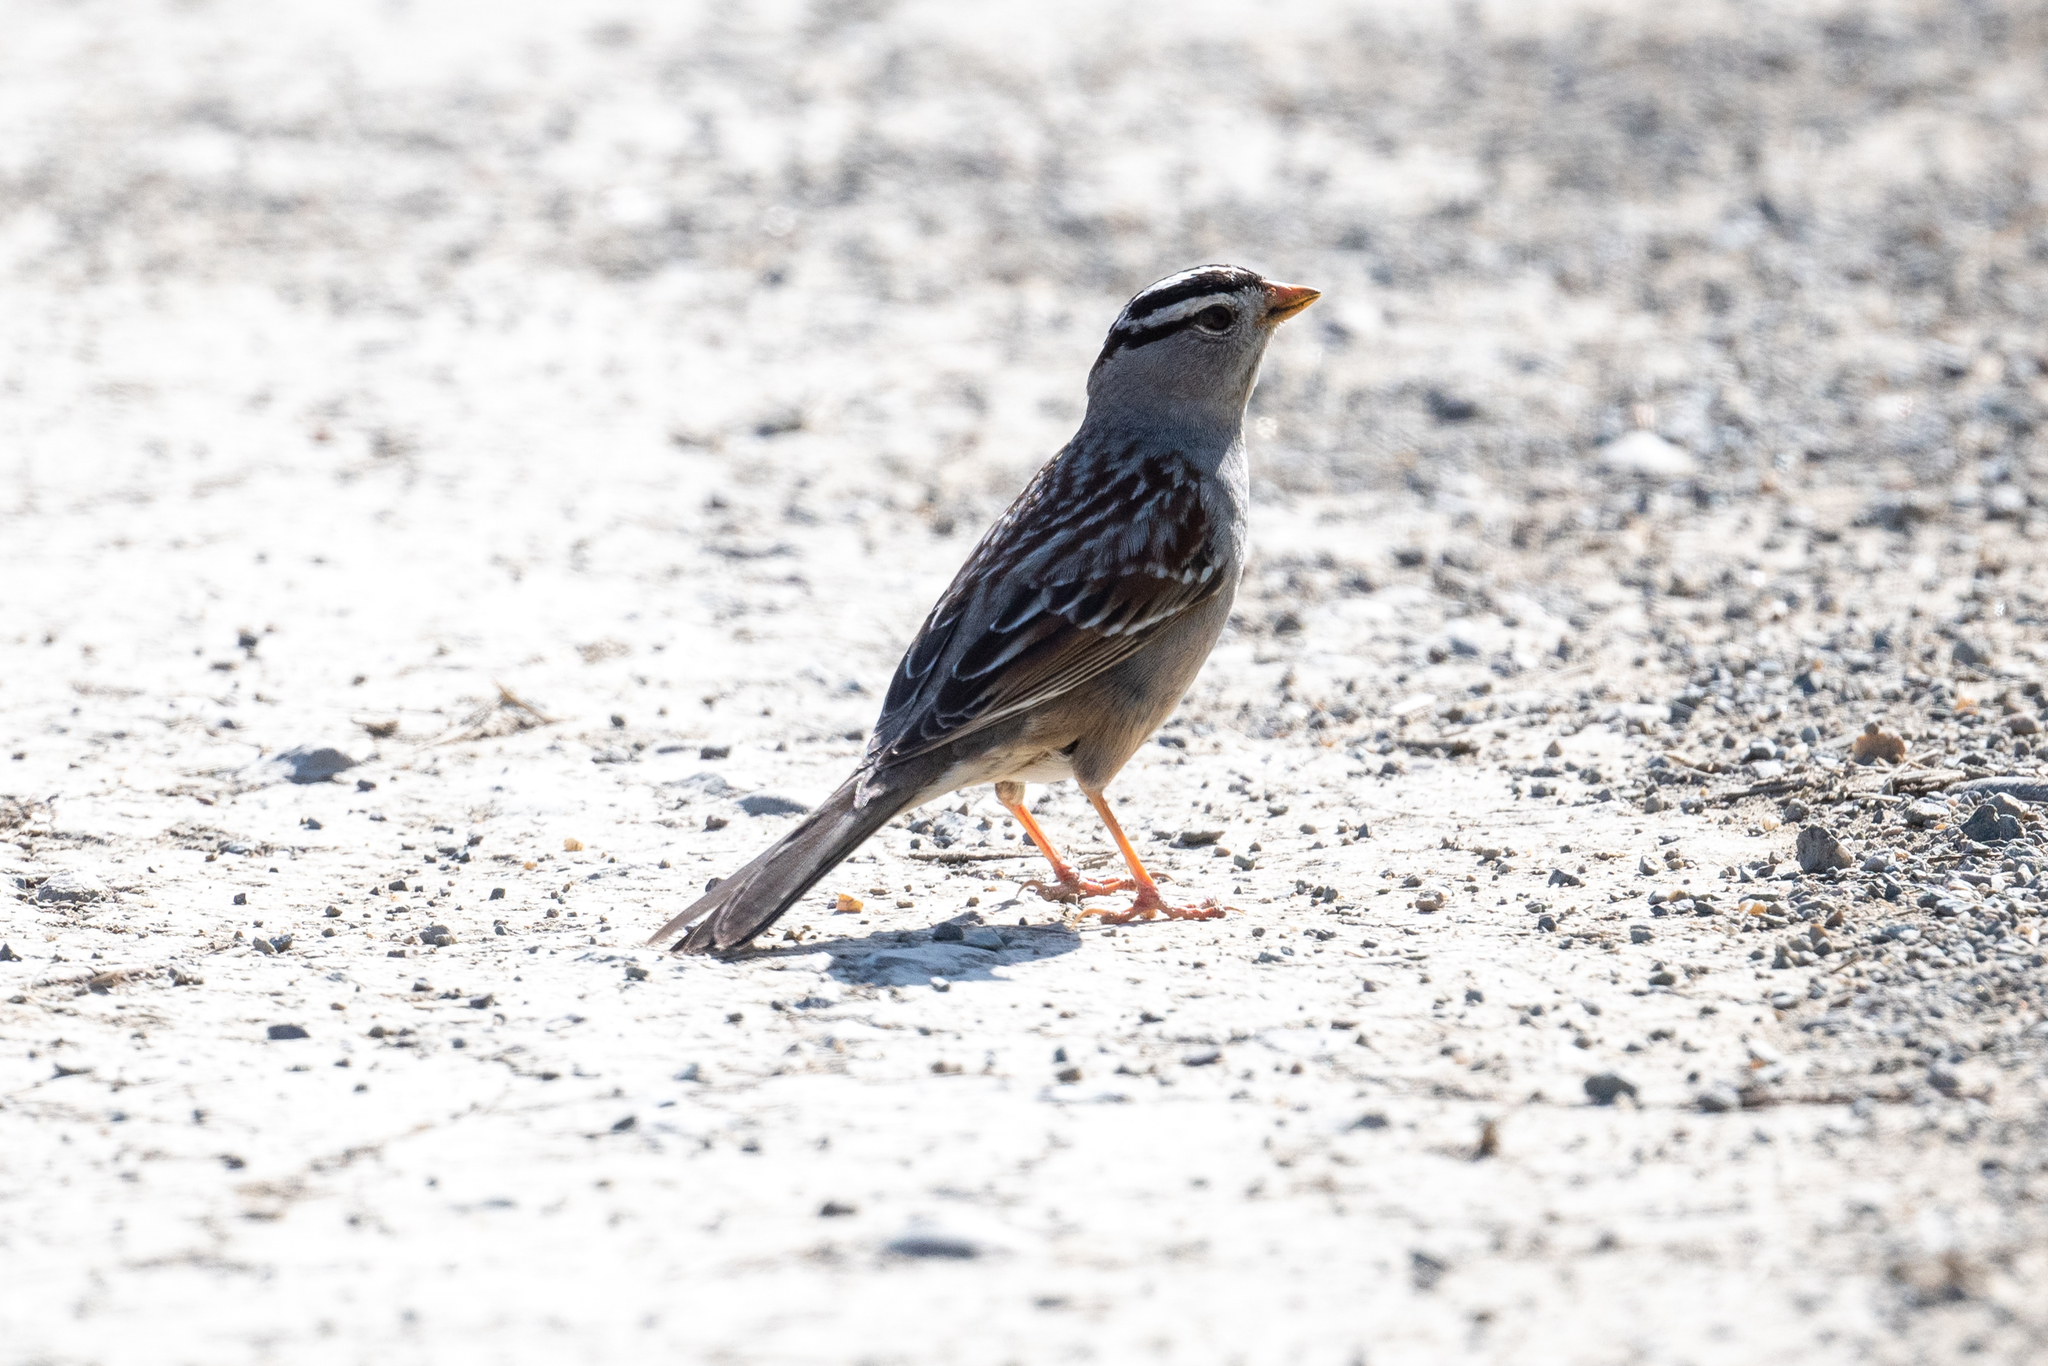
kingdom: Animalia
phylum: Chordata
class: Aves
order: Passeriformes
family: Passerellidae
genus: Zonotrichia
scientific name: Zonotrichia leucophrys
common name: White-crowned sparrow
